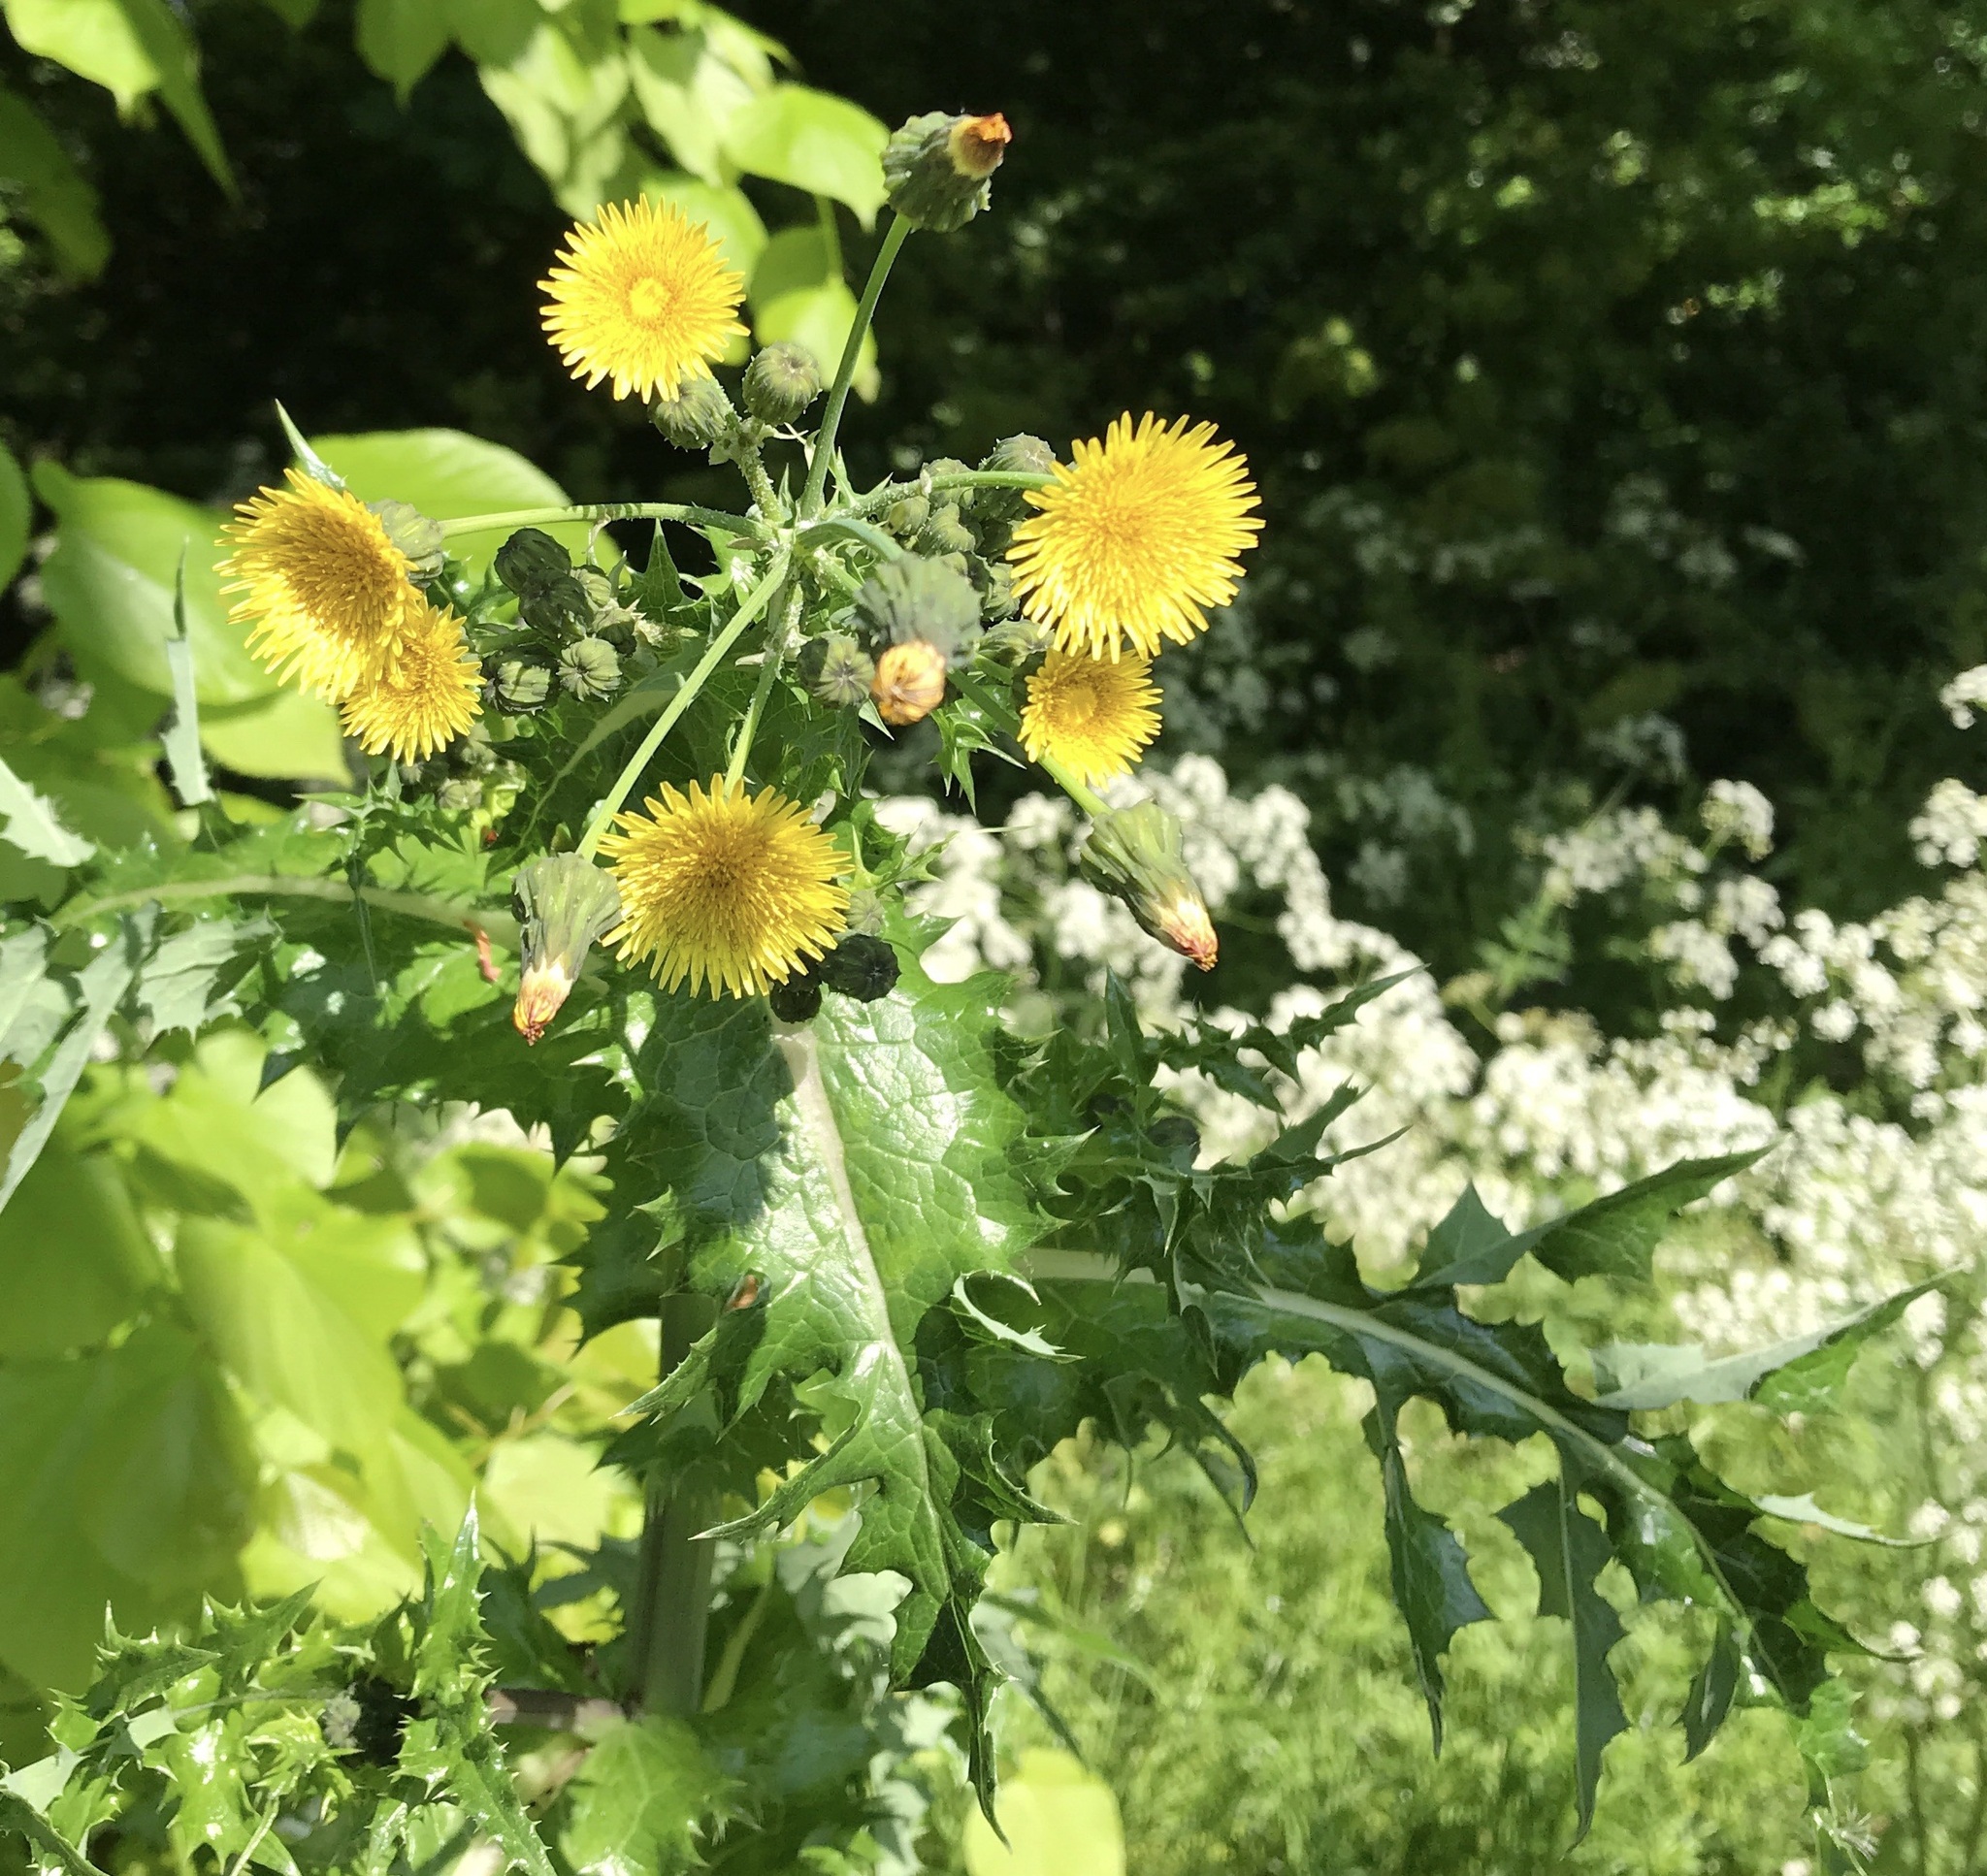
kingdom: Plantae
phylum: Tracheophyta
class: Magnoliopsida
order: Asterales
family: Asteraceae
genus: Sonchus
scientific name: Sonchus oleraceus
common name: Common sowthistle
